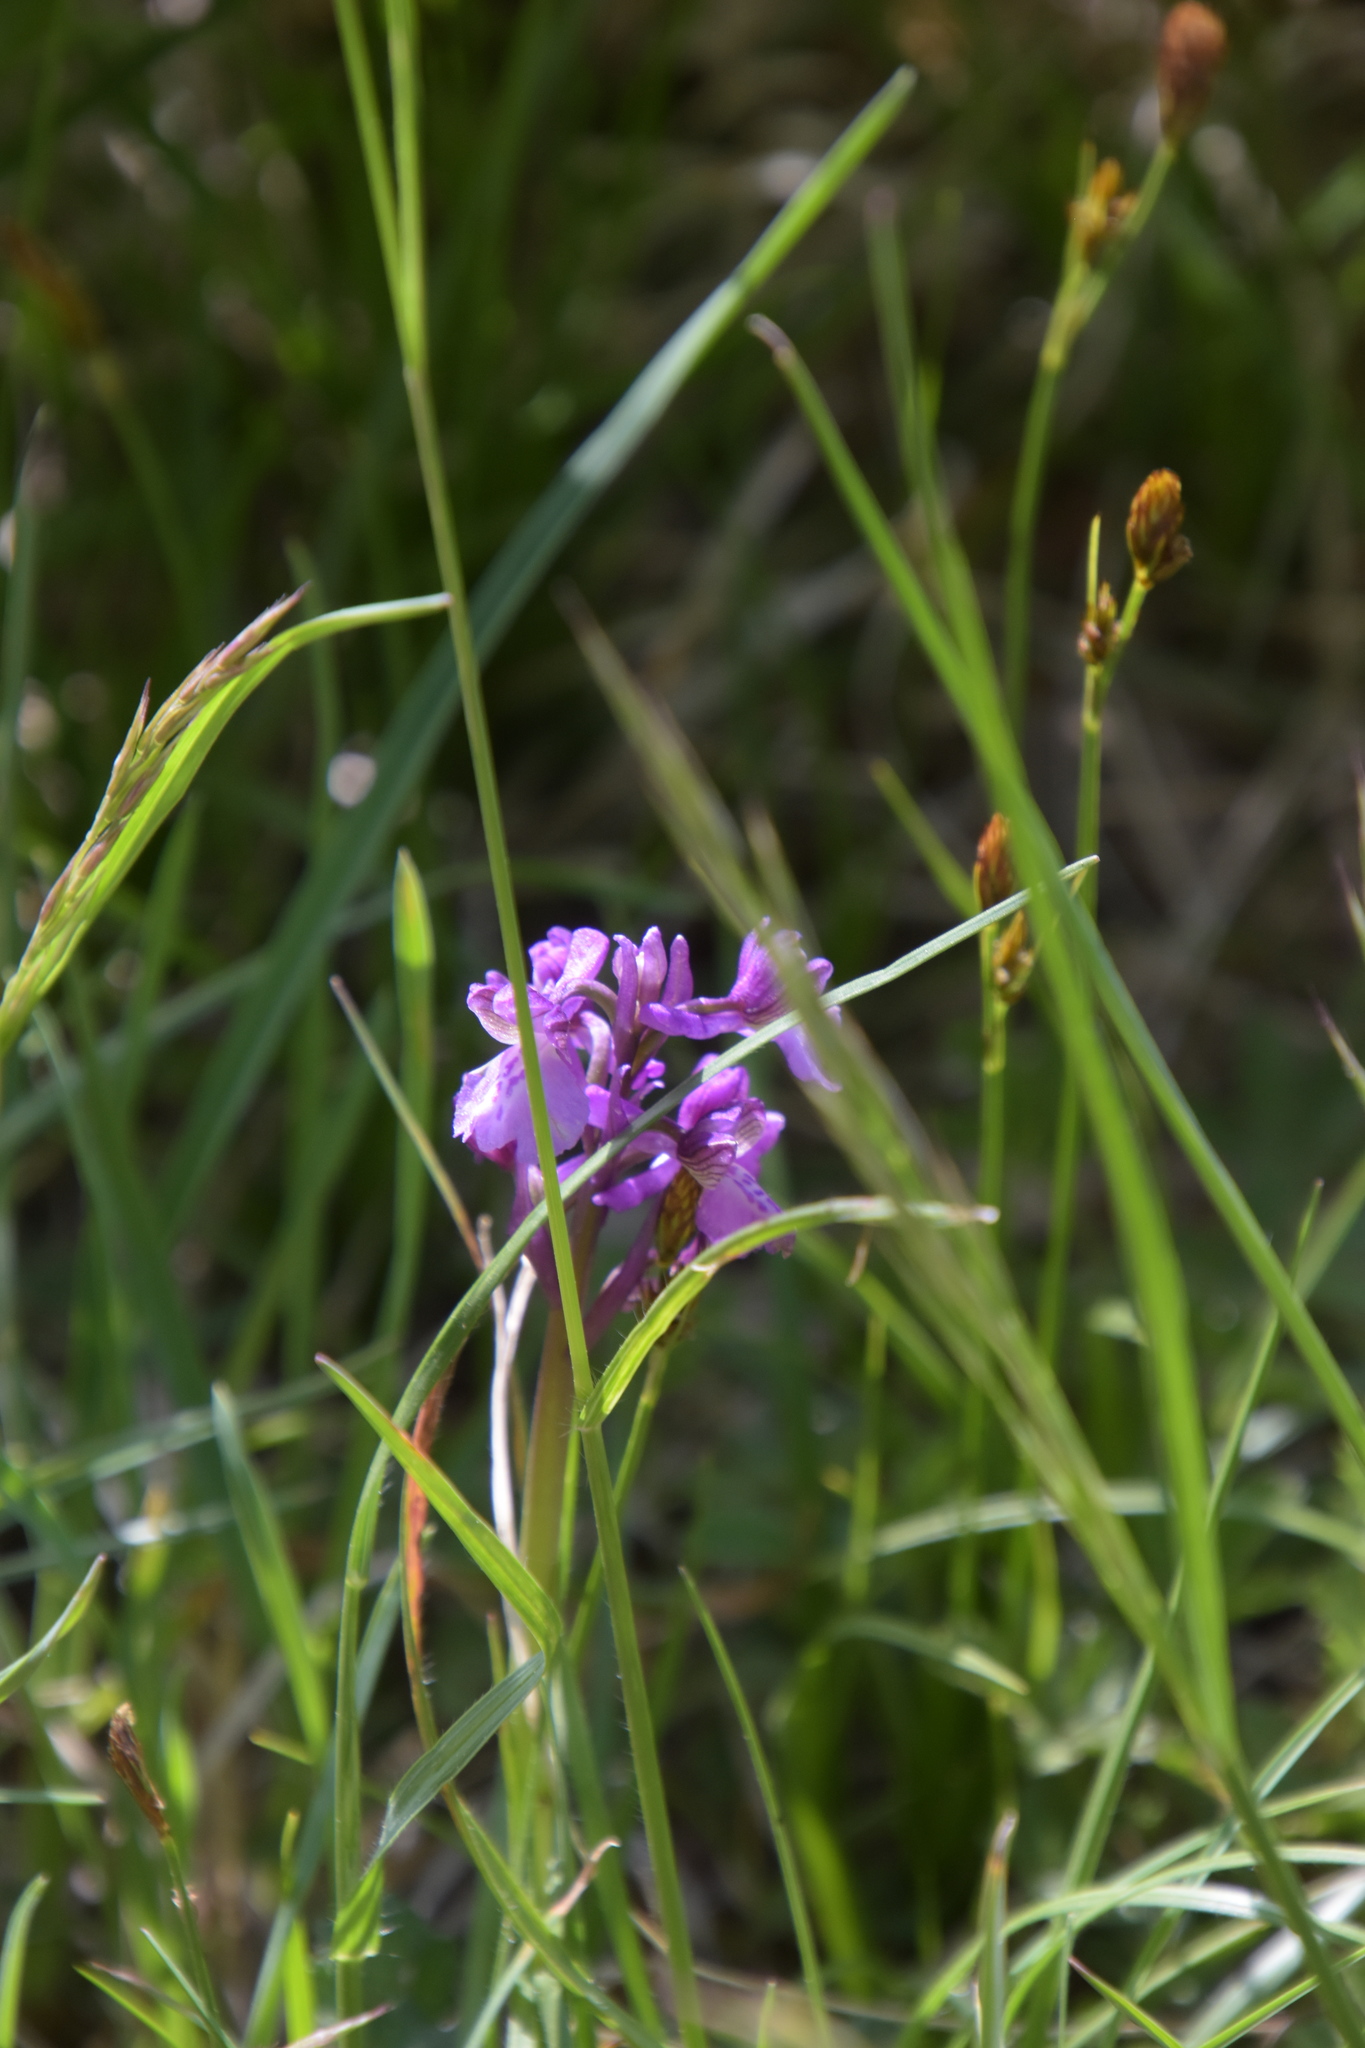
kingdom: Plantae
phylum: Tracheophyta
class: Liliopsida
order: Asparagales
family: Orchidaceae
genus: Anacamptis
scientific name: Anacamptis morio
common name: Green-winged orchid
